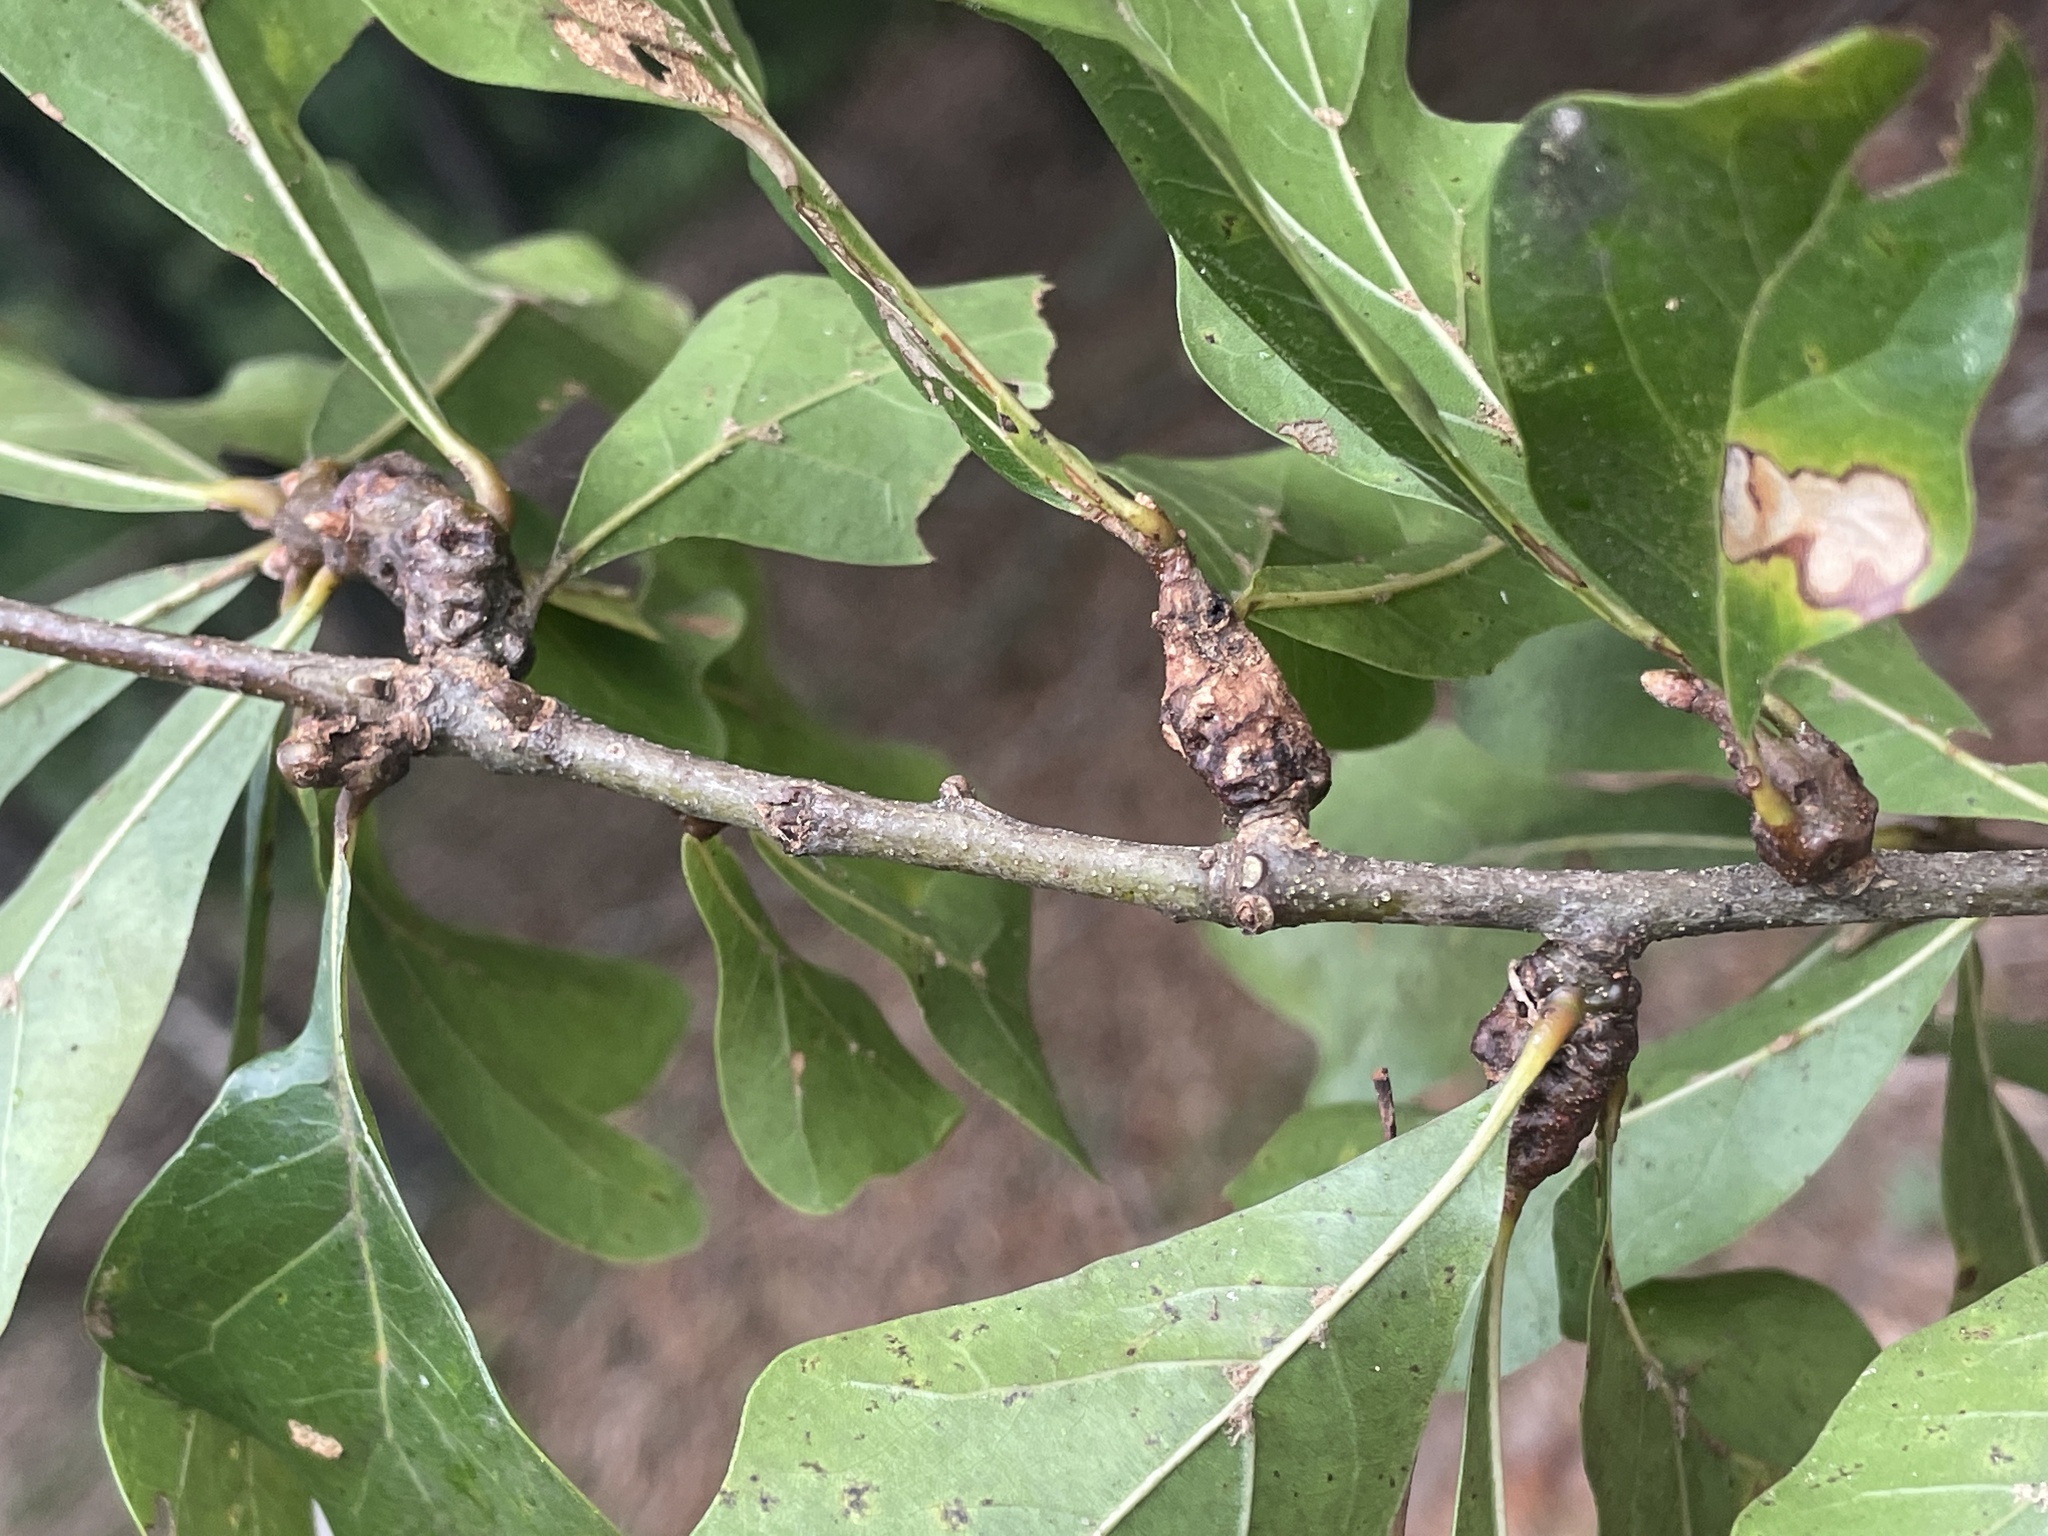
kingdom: Animalia
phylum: Arthropoda
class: Insecta
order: Hymenoptera
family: Cynipidae
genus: Andricus
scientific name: Andricus torreyaensis
